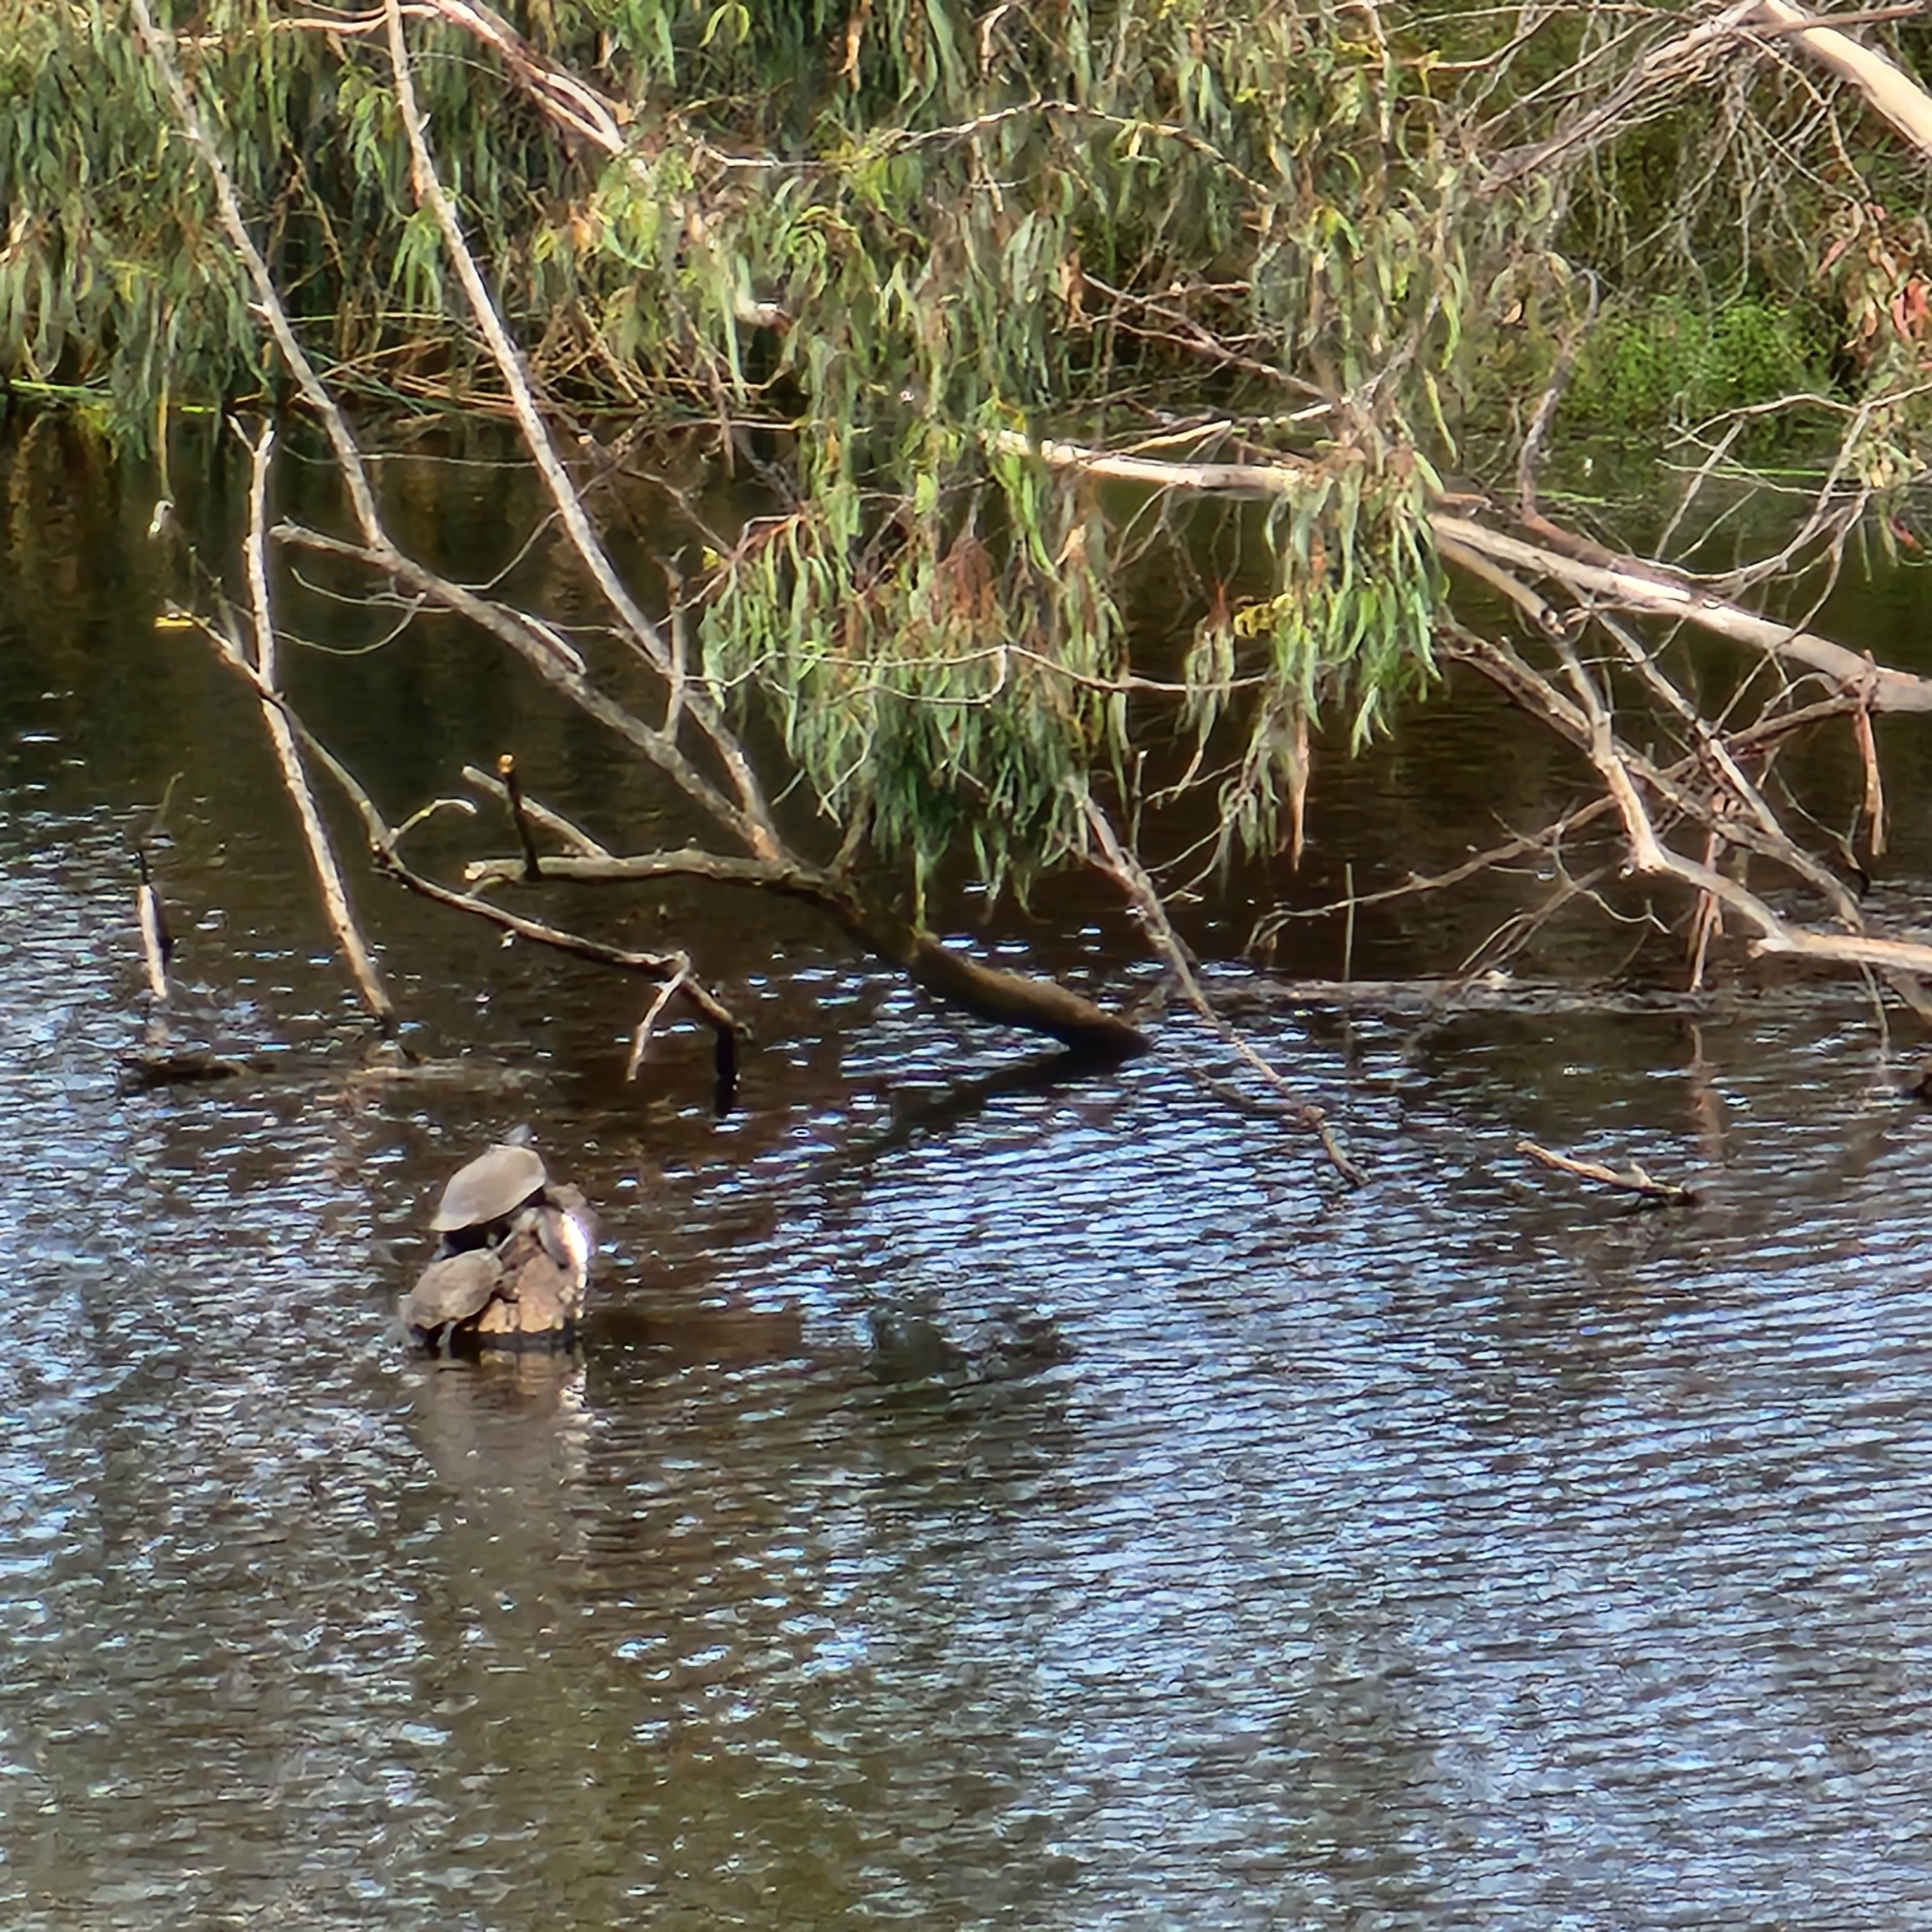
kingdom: Animalia
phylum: Chordata
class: Testudines
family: Chelidae
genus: Emydura
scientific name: Emydura macquarii
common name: Murray river turtle
